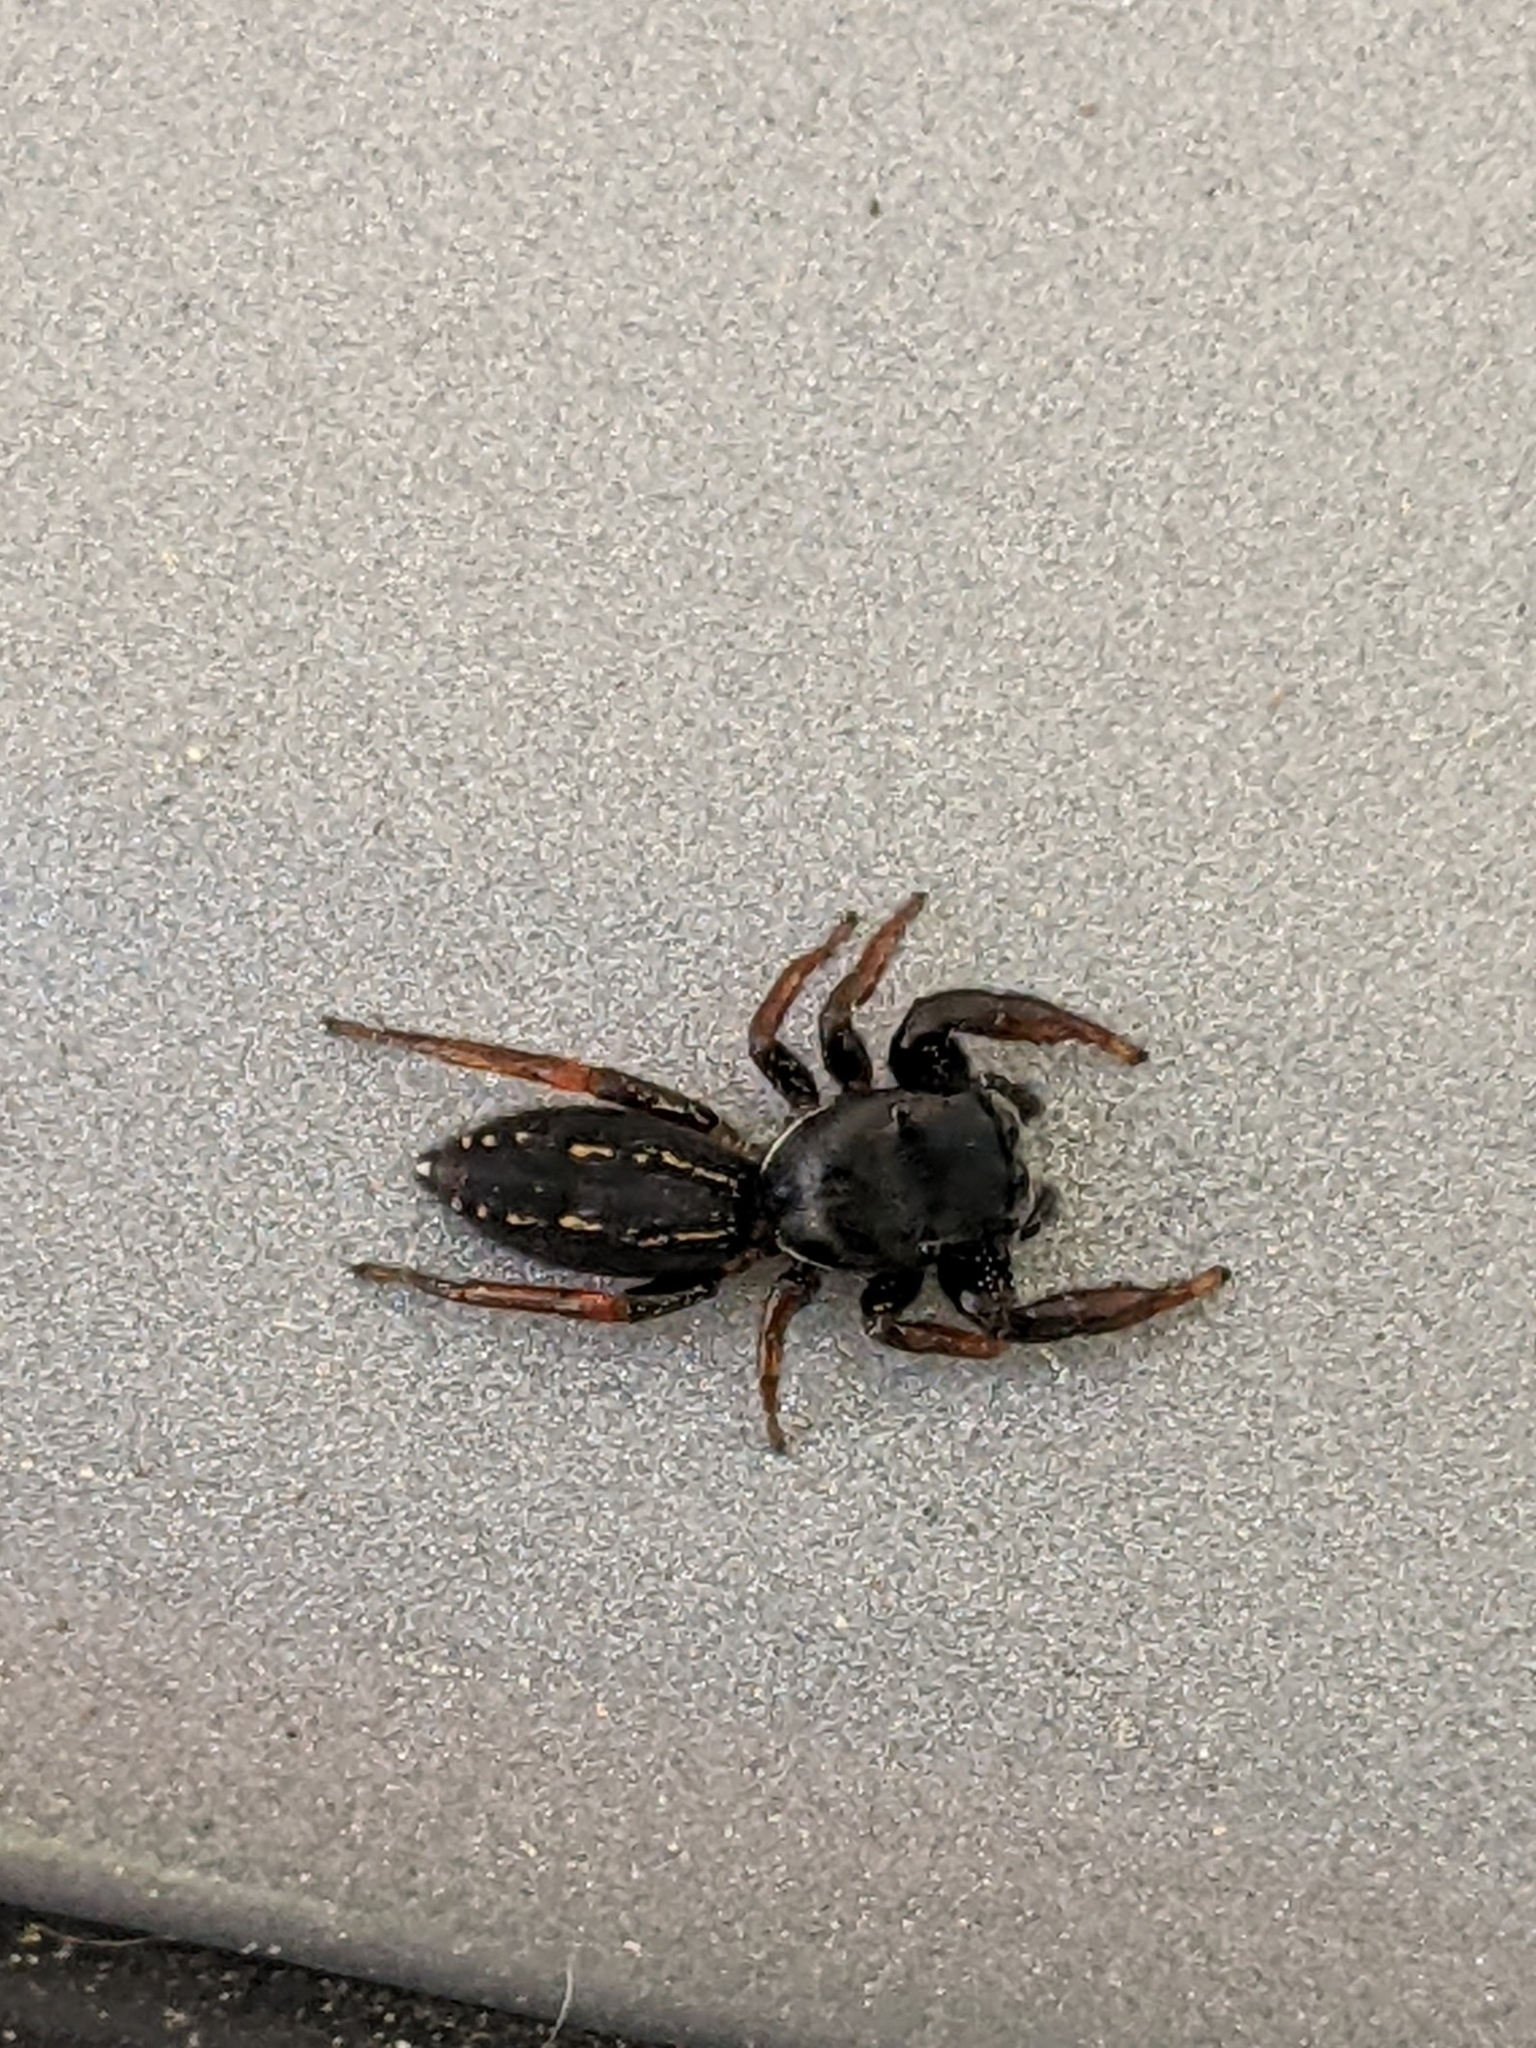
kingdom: Animalia
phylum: Arthropoda
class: Arachnida
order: Araneae
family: Salticidae
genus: Metacyrba
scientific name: Metacyrba taeniola
